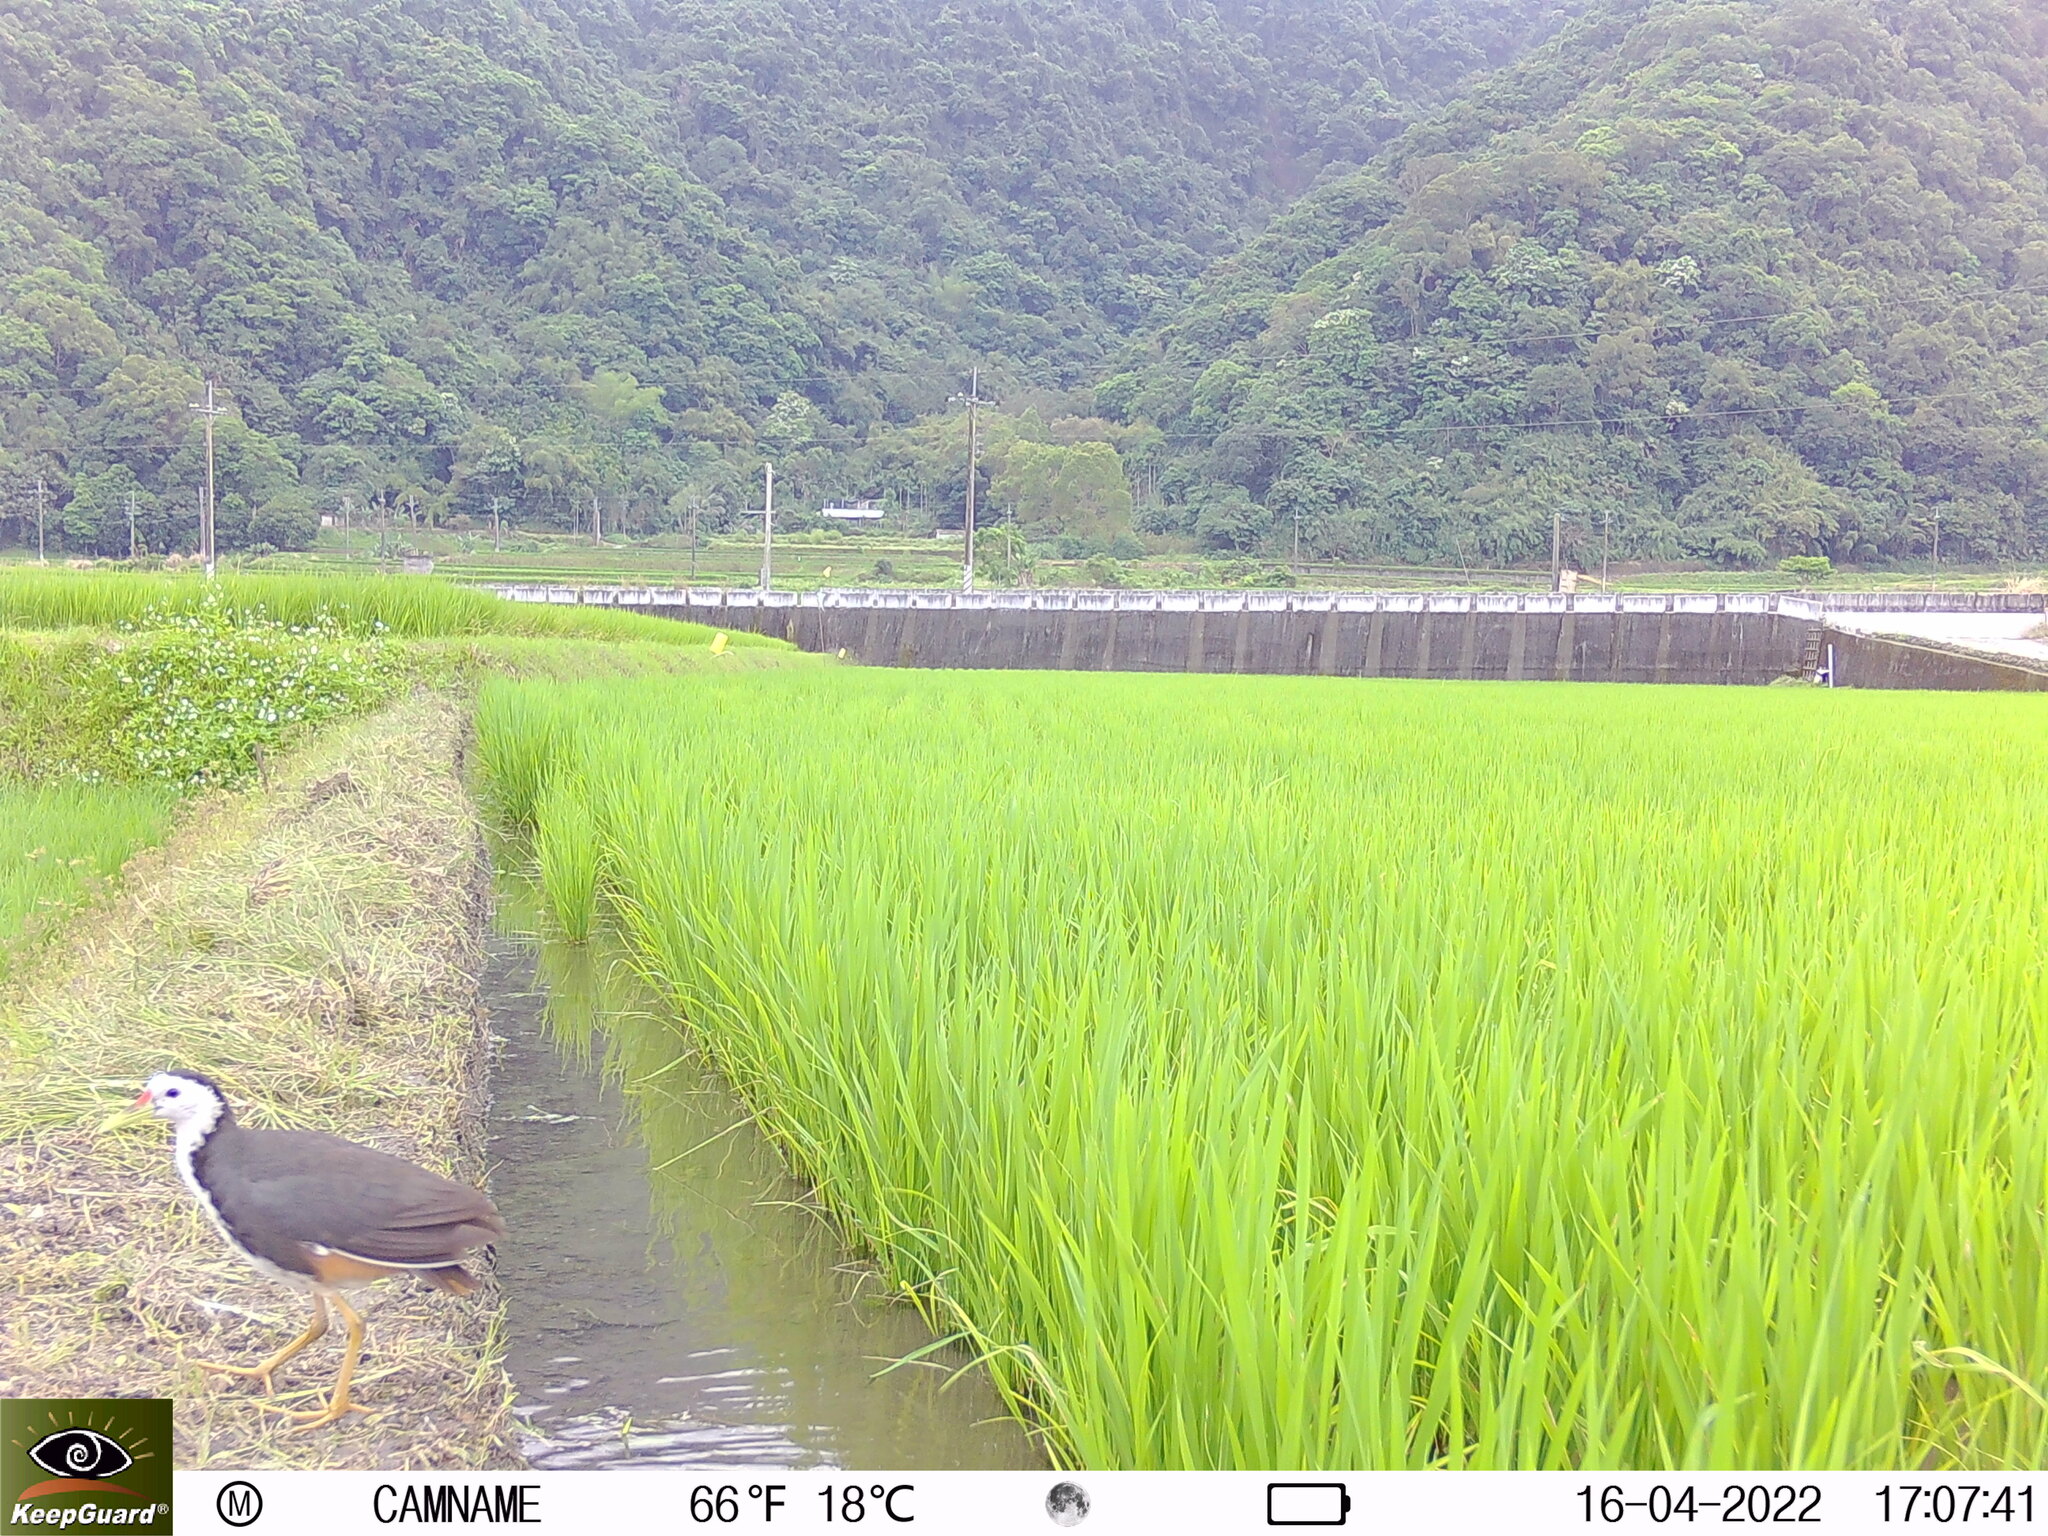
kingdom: Animalia
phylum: Chordata
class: Aves
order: Gruiformes
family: Rallidae
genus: Amaurornis
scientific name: Amaurornis phoenicurus
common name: White-breasted waterhen
